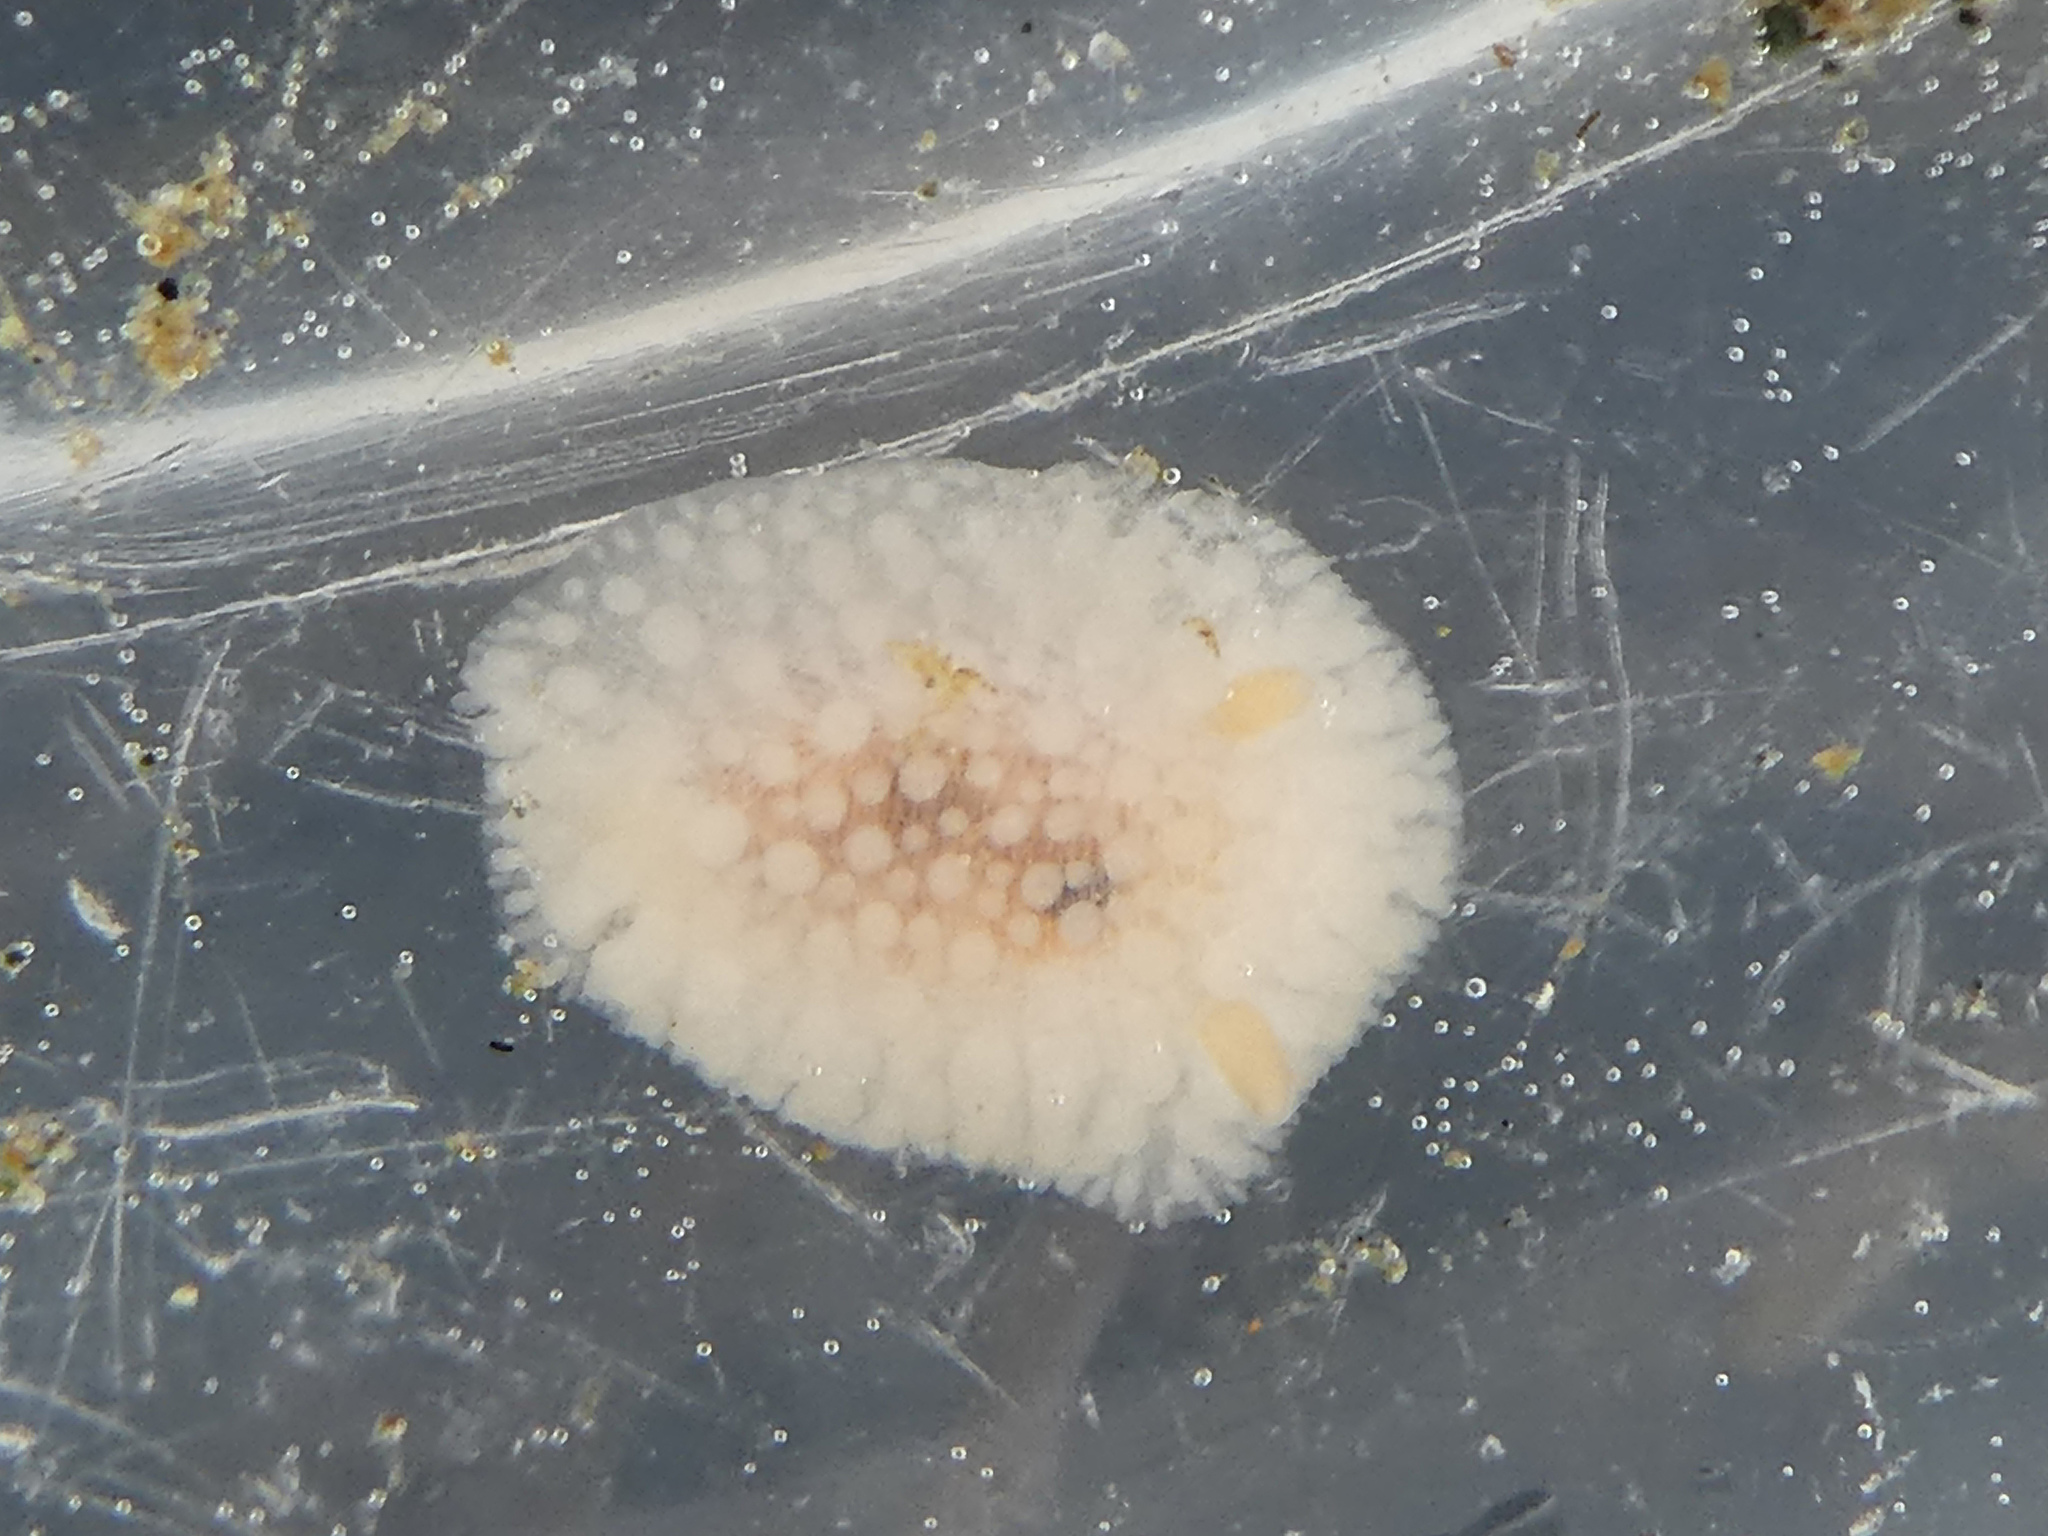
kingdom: Animalia
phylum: Mollusca
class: Gastropoda
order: Nudibranchia
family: Onchidorididae
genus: Onchidoris
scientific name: Onchidoris muricata
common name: Rough doris
